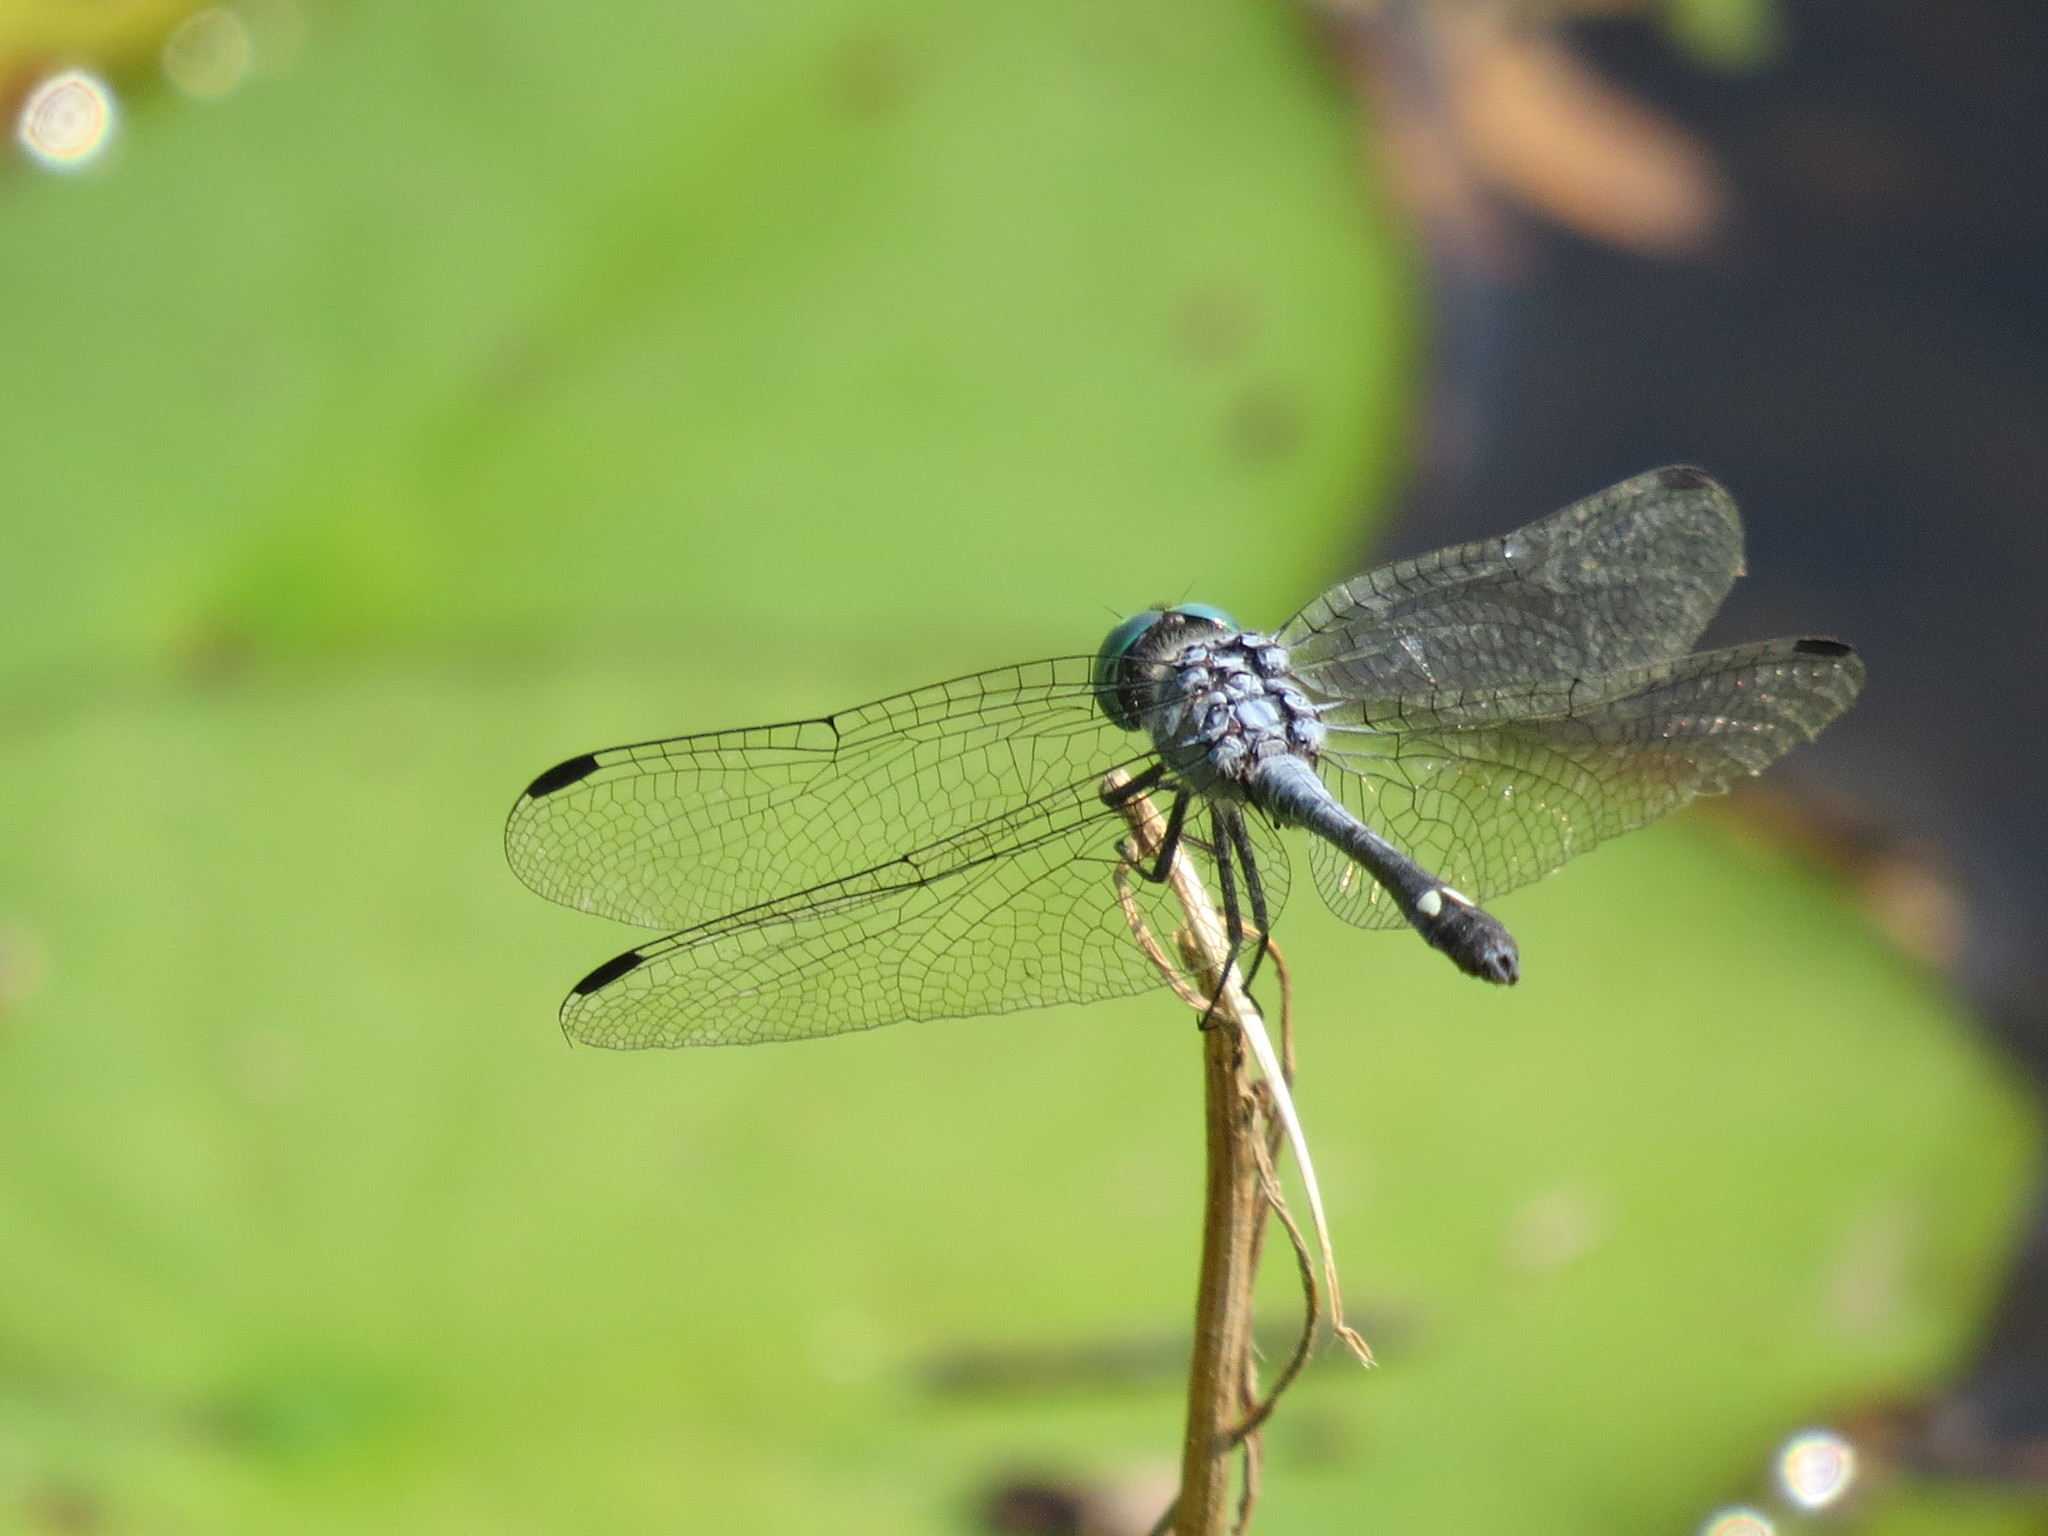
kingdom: Animalia
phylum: Arthropoda
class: Insecta
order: Odonata
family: Libellulidae
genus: Micrathyria
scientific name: Micrathyria aequalis
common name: Spot-tailed dasher
